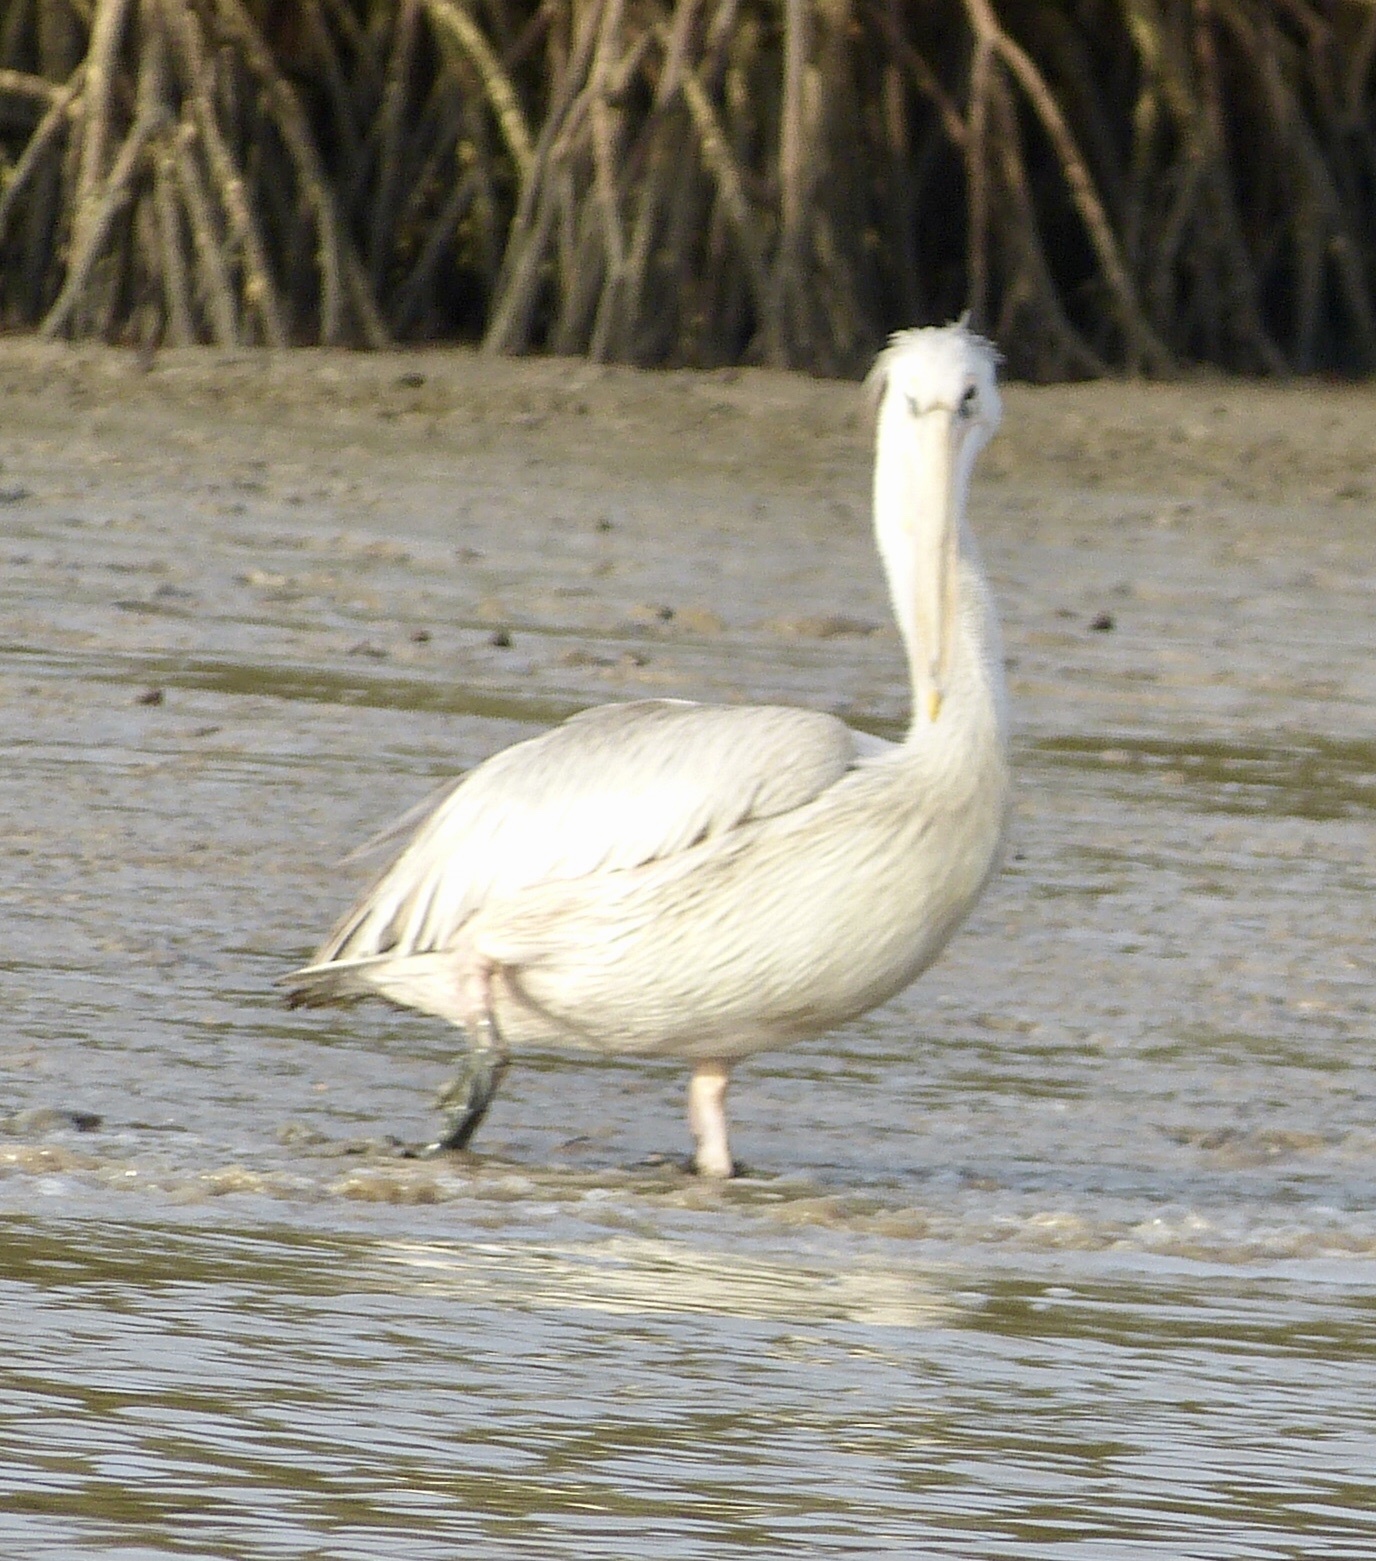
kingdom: Animalia
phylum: Chordata
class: Aves
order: Pelecaniformes
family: Pelecanidae
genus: Pelecanus
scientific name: Pelecanus rufescens
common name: Pink-backed pelican
